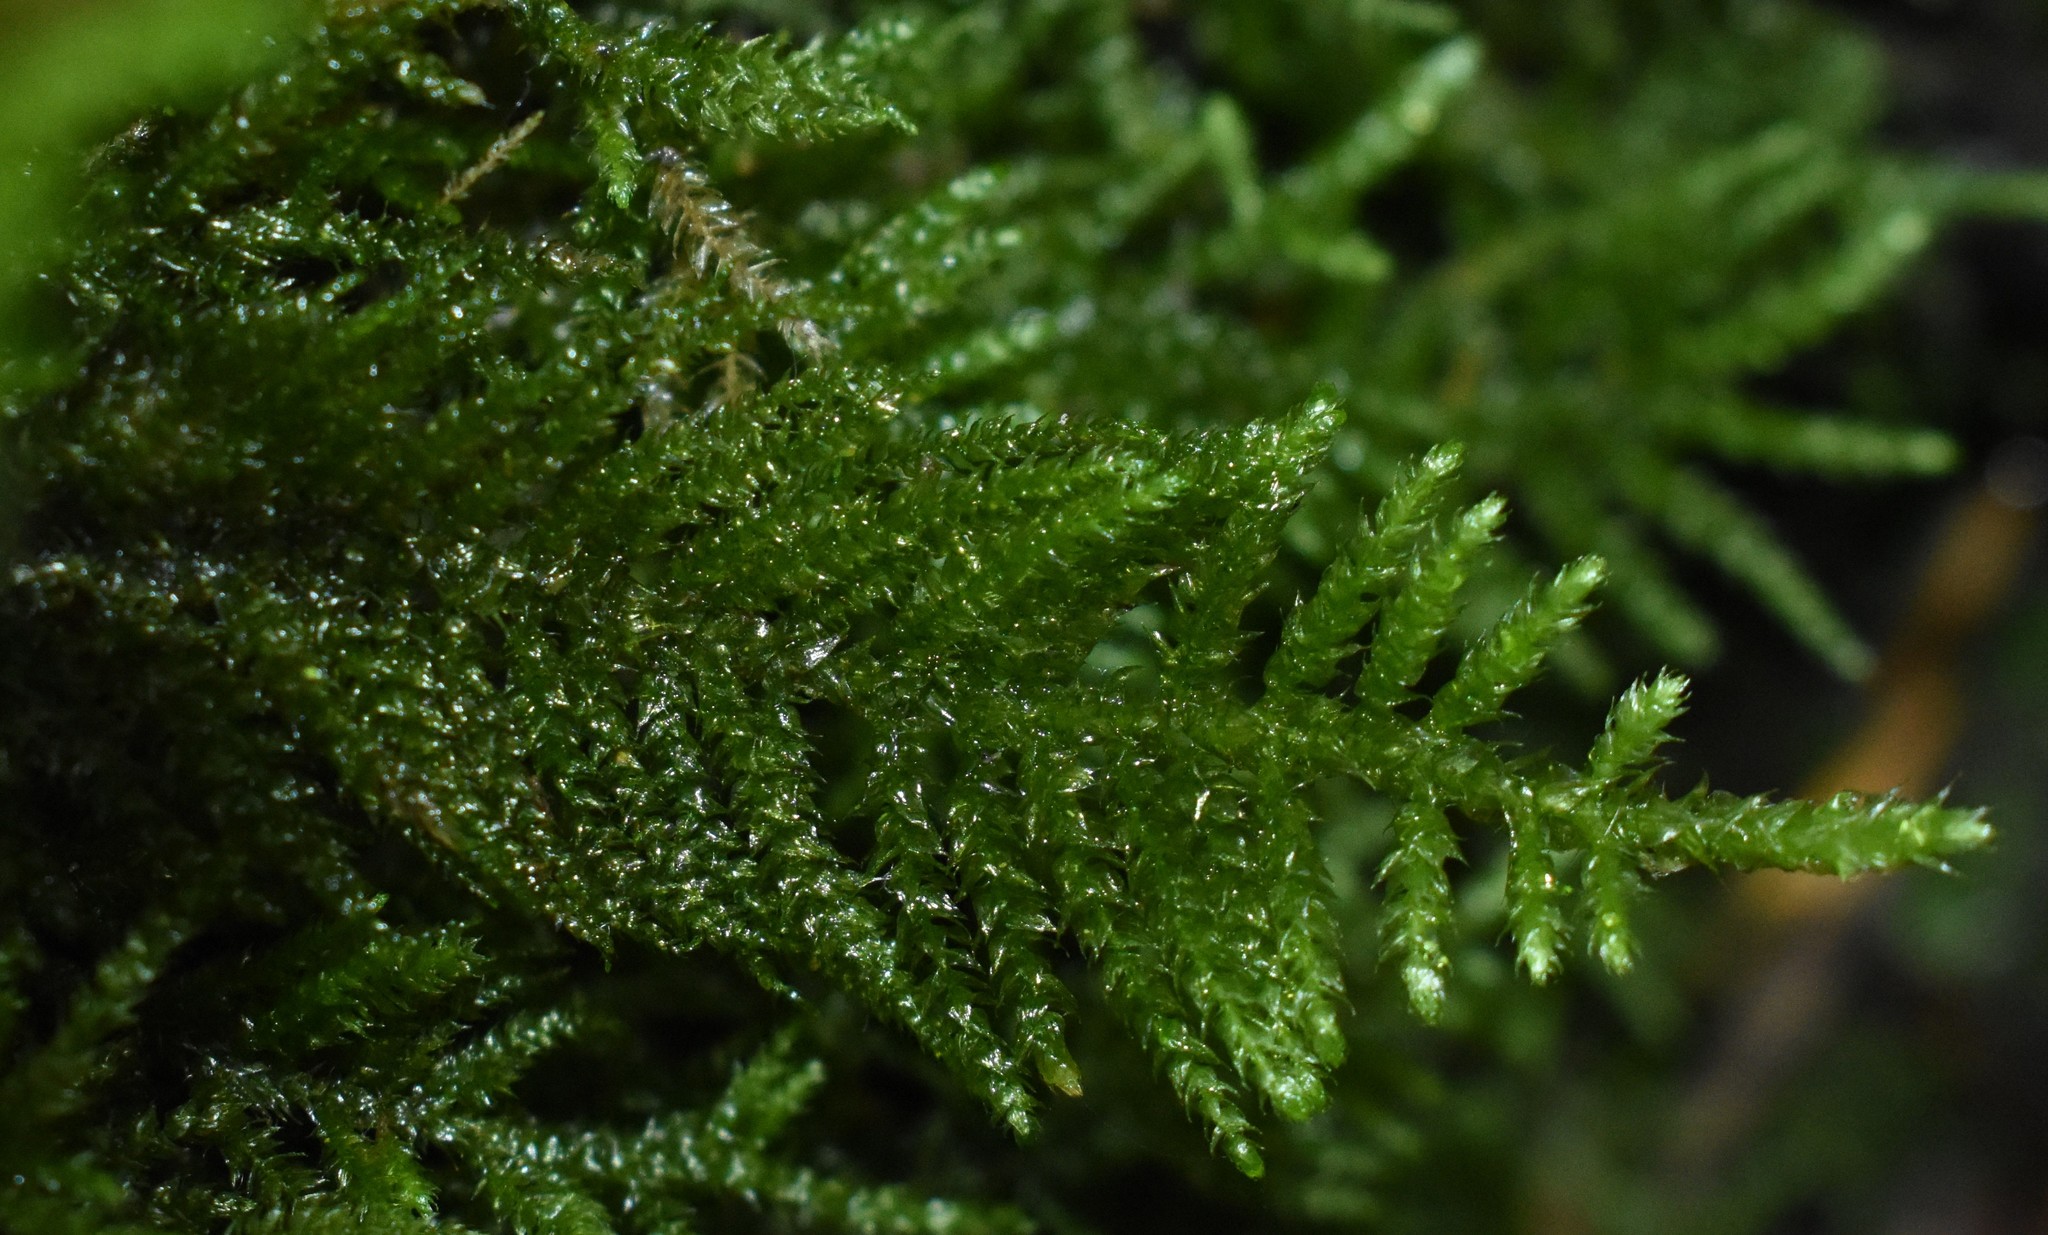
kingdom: Plantae
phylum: Bryophyta
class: Bryopsida
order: Hypnales
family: Brachytheciaceae
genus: Kindbergia
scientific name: Kindbergia oregana
